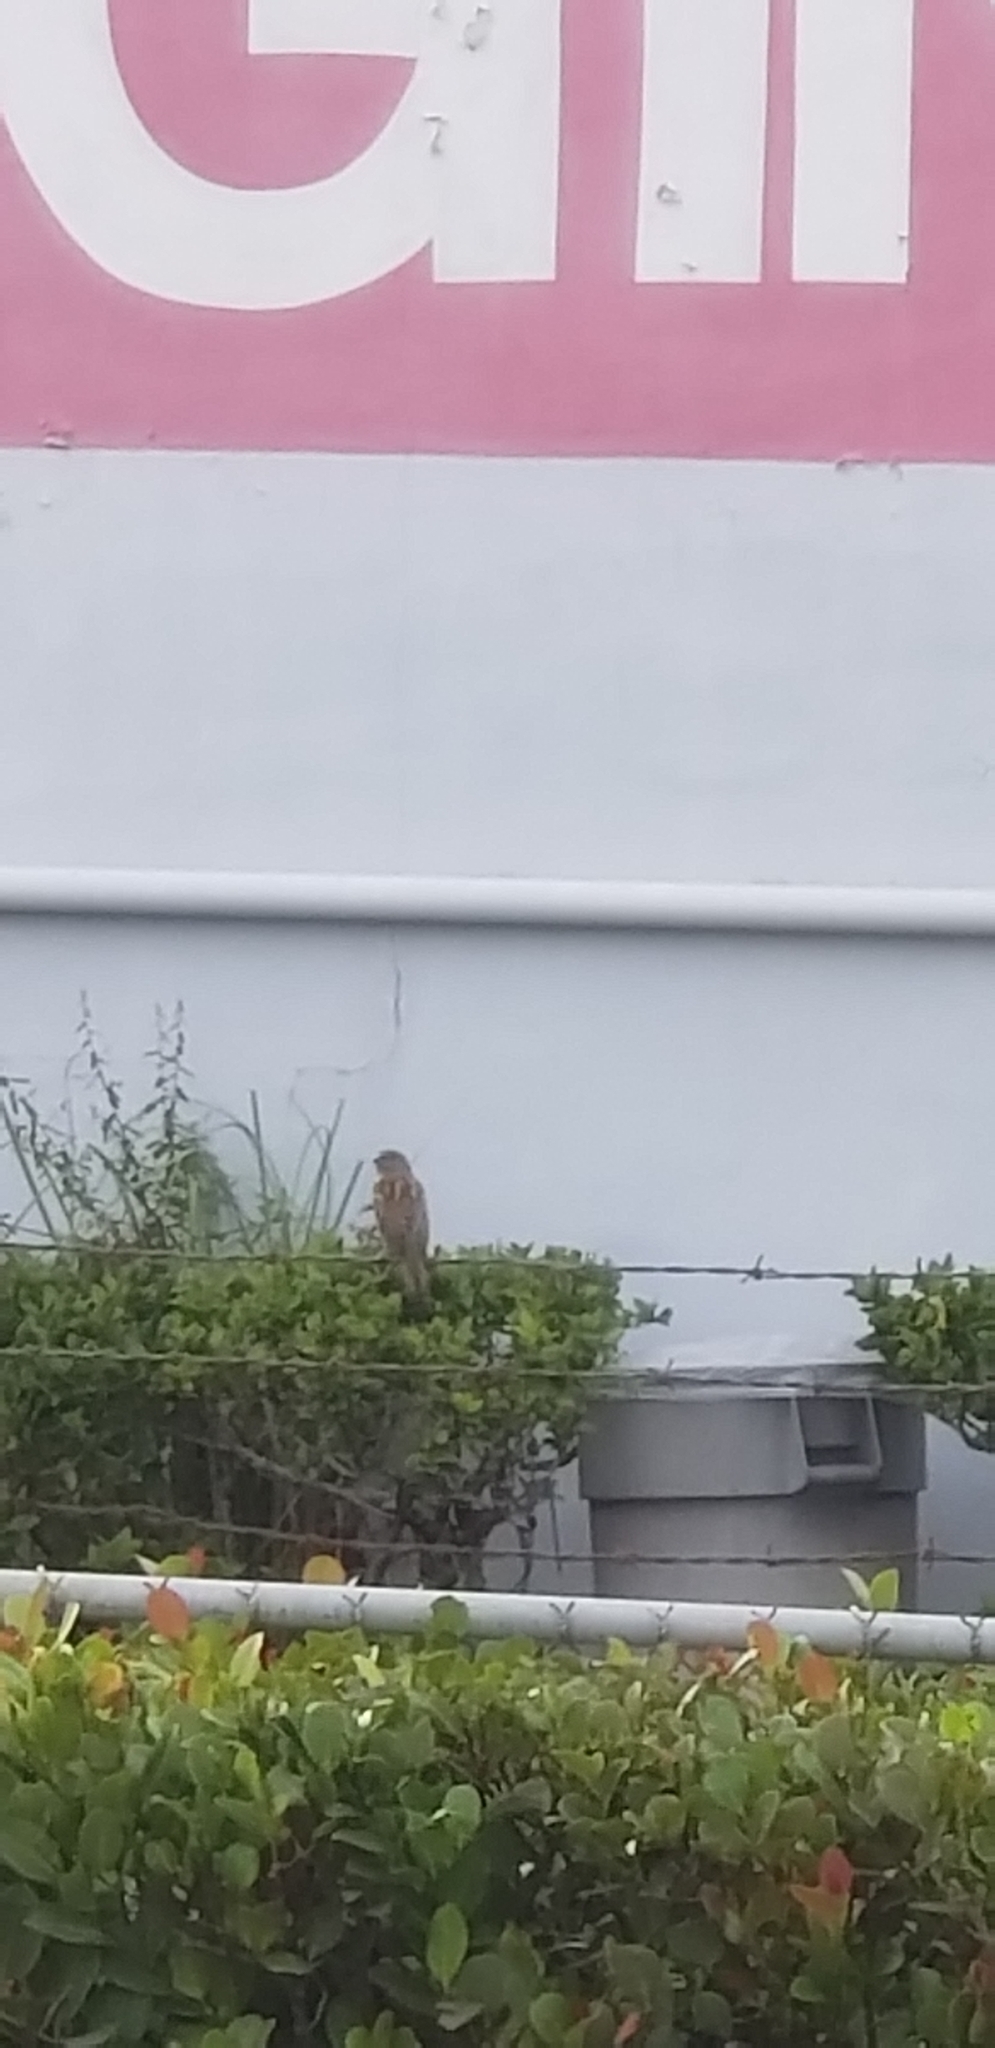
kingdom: Animalia
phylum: Chordata
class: Aves
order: Passeriformes
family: Passeridae
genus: Passer
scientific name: Passer domesticus
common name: House sparrow
